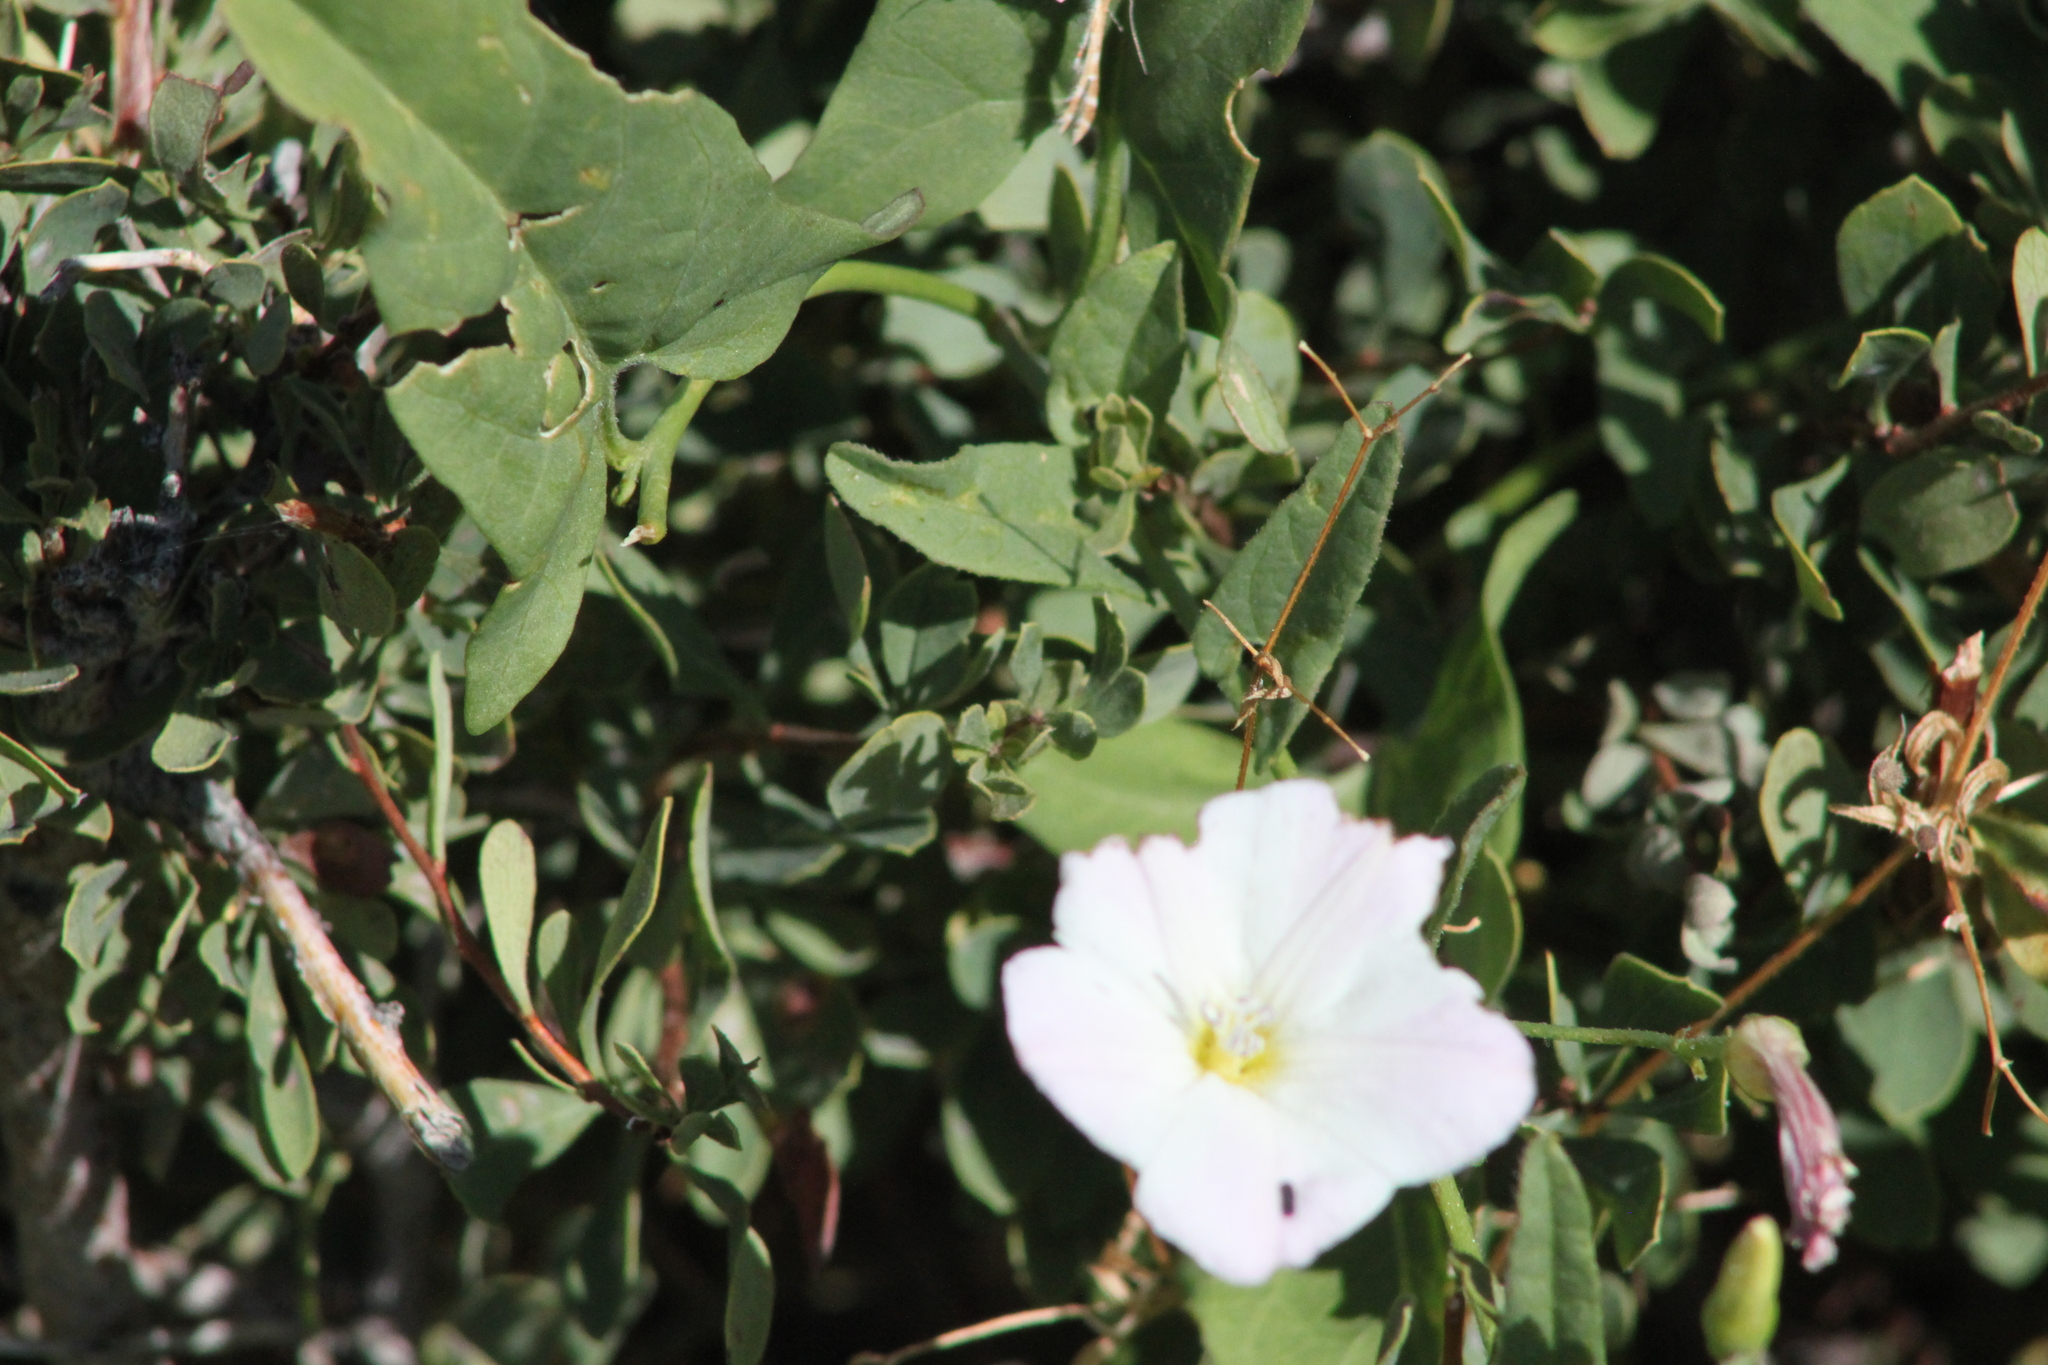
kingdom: Plantae
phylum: Tracheophyta
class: Magnoliopsida
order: Solanales
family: Convolvulaceae
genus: Convolvulus
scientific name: Convolvulus arvensis
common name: Field bindweed
